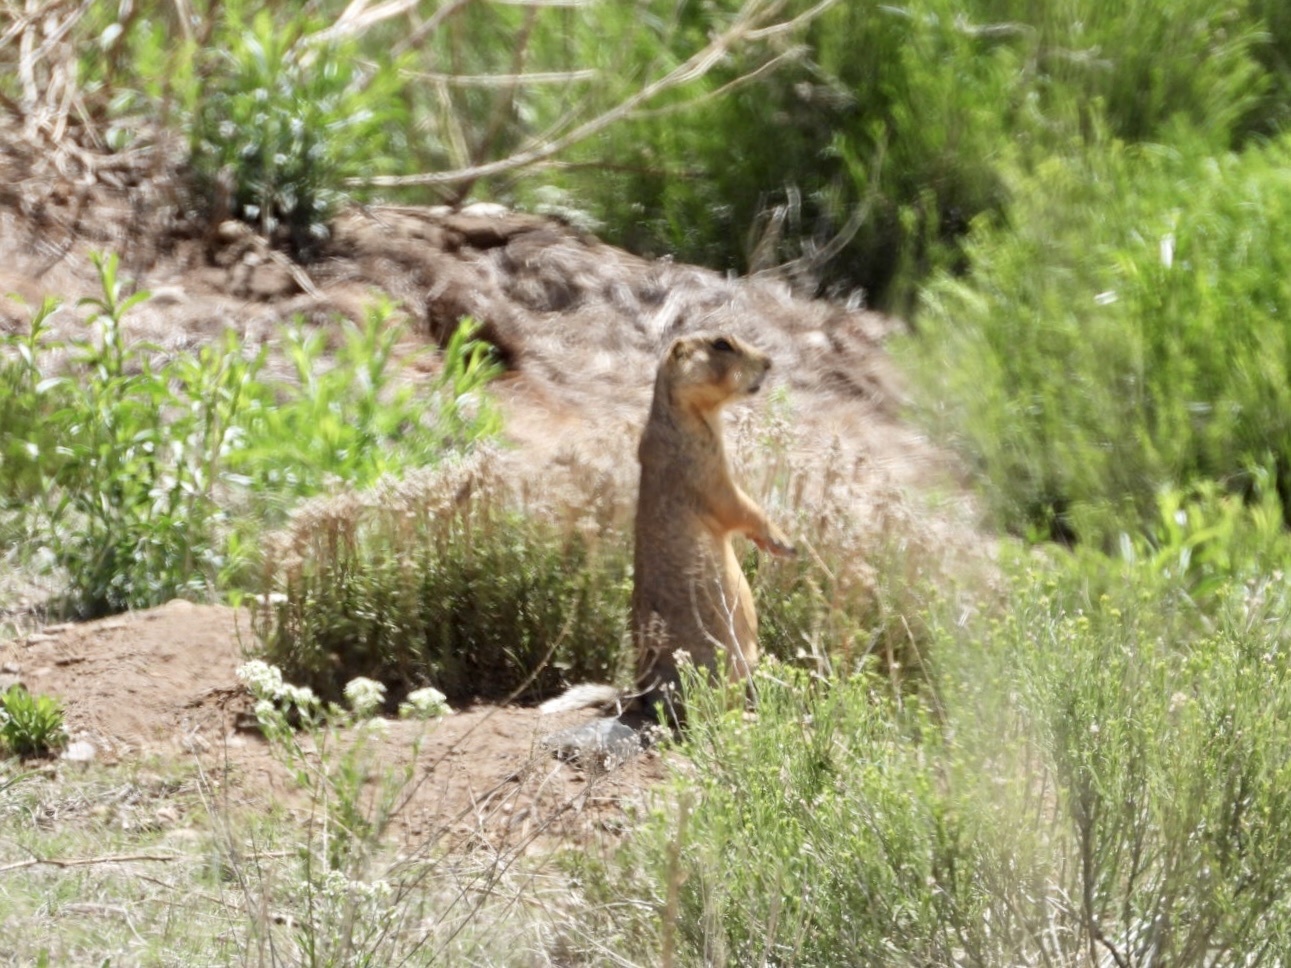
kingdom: Animalia
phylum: Chordata
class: Mammalia
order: Rodentia
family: Sciuridae
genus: Cynomys
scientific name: Cynomys gunnisoni
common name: Gunnison's prairie dog
